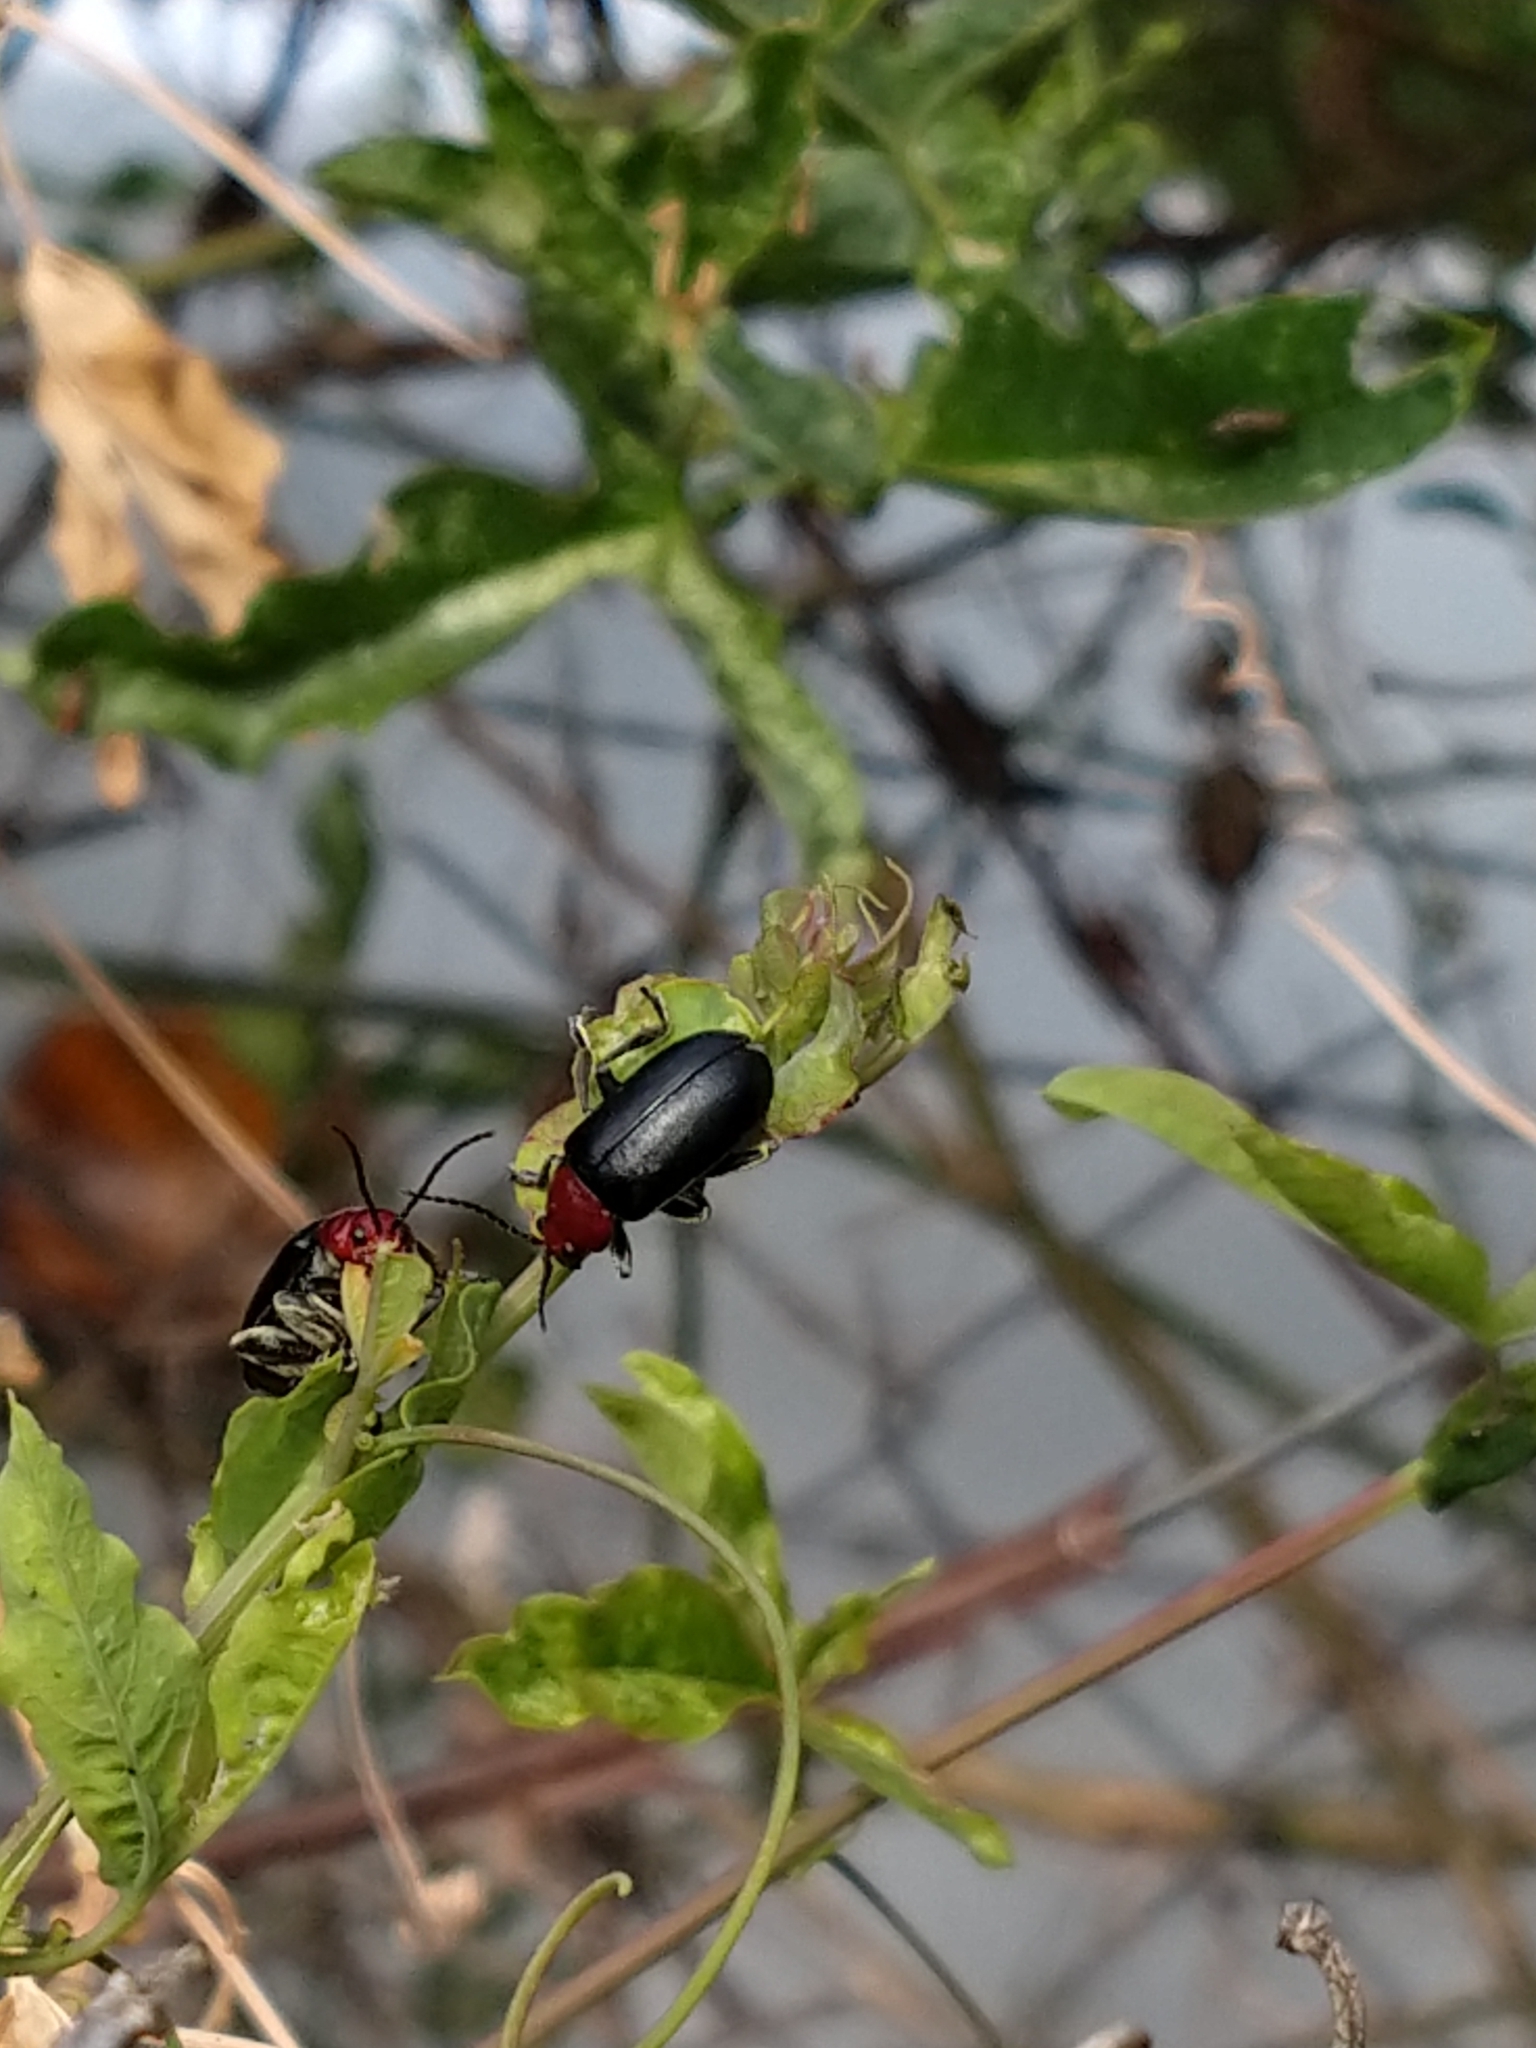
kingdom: Animalia
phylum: Arthropoda
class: Insecta
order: Coleoptera
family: Chrysomelidae
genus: Cacoscelis
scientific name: Cacoscelis
